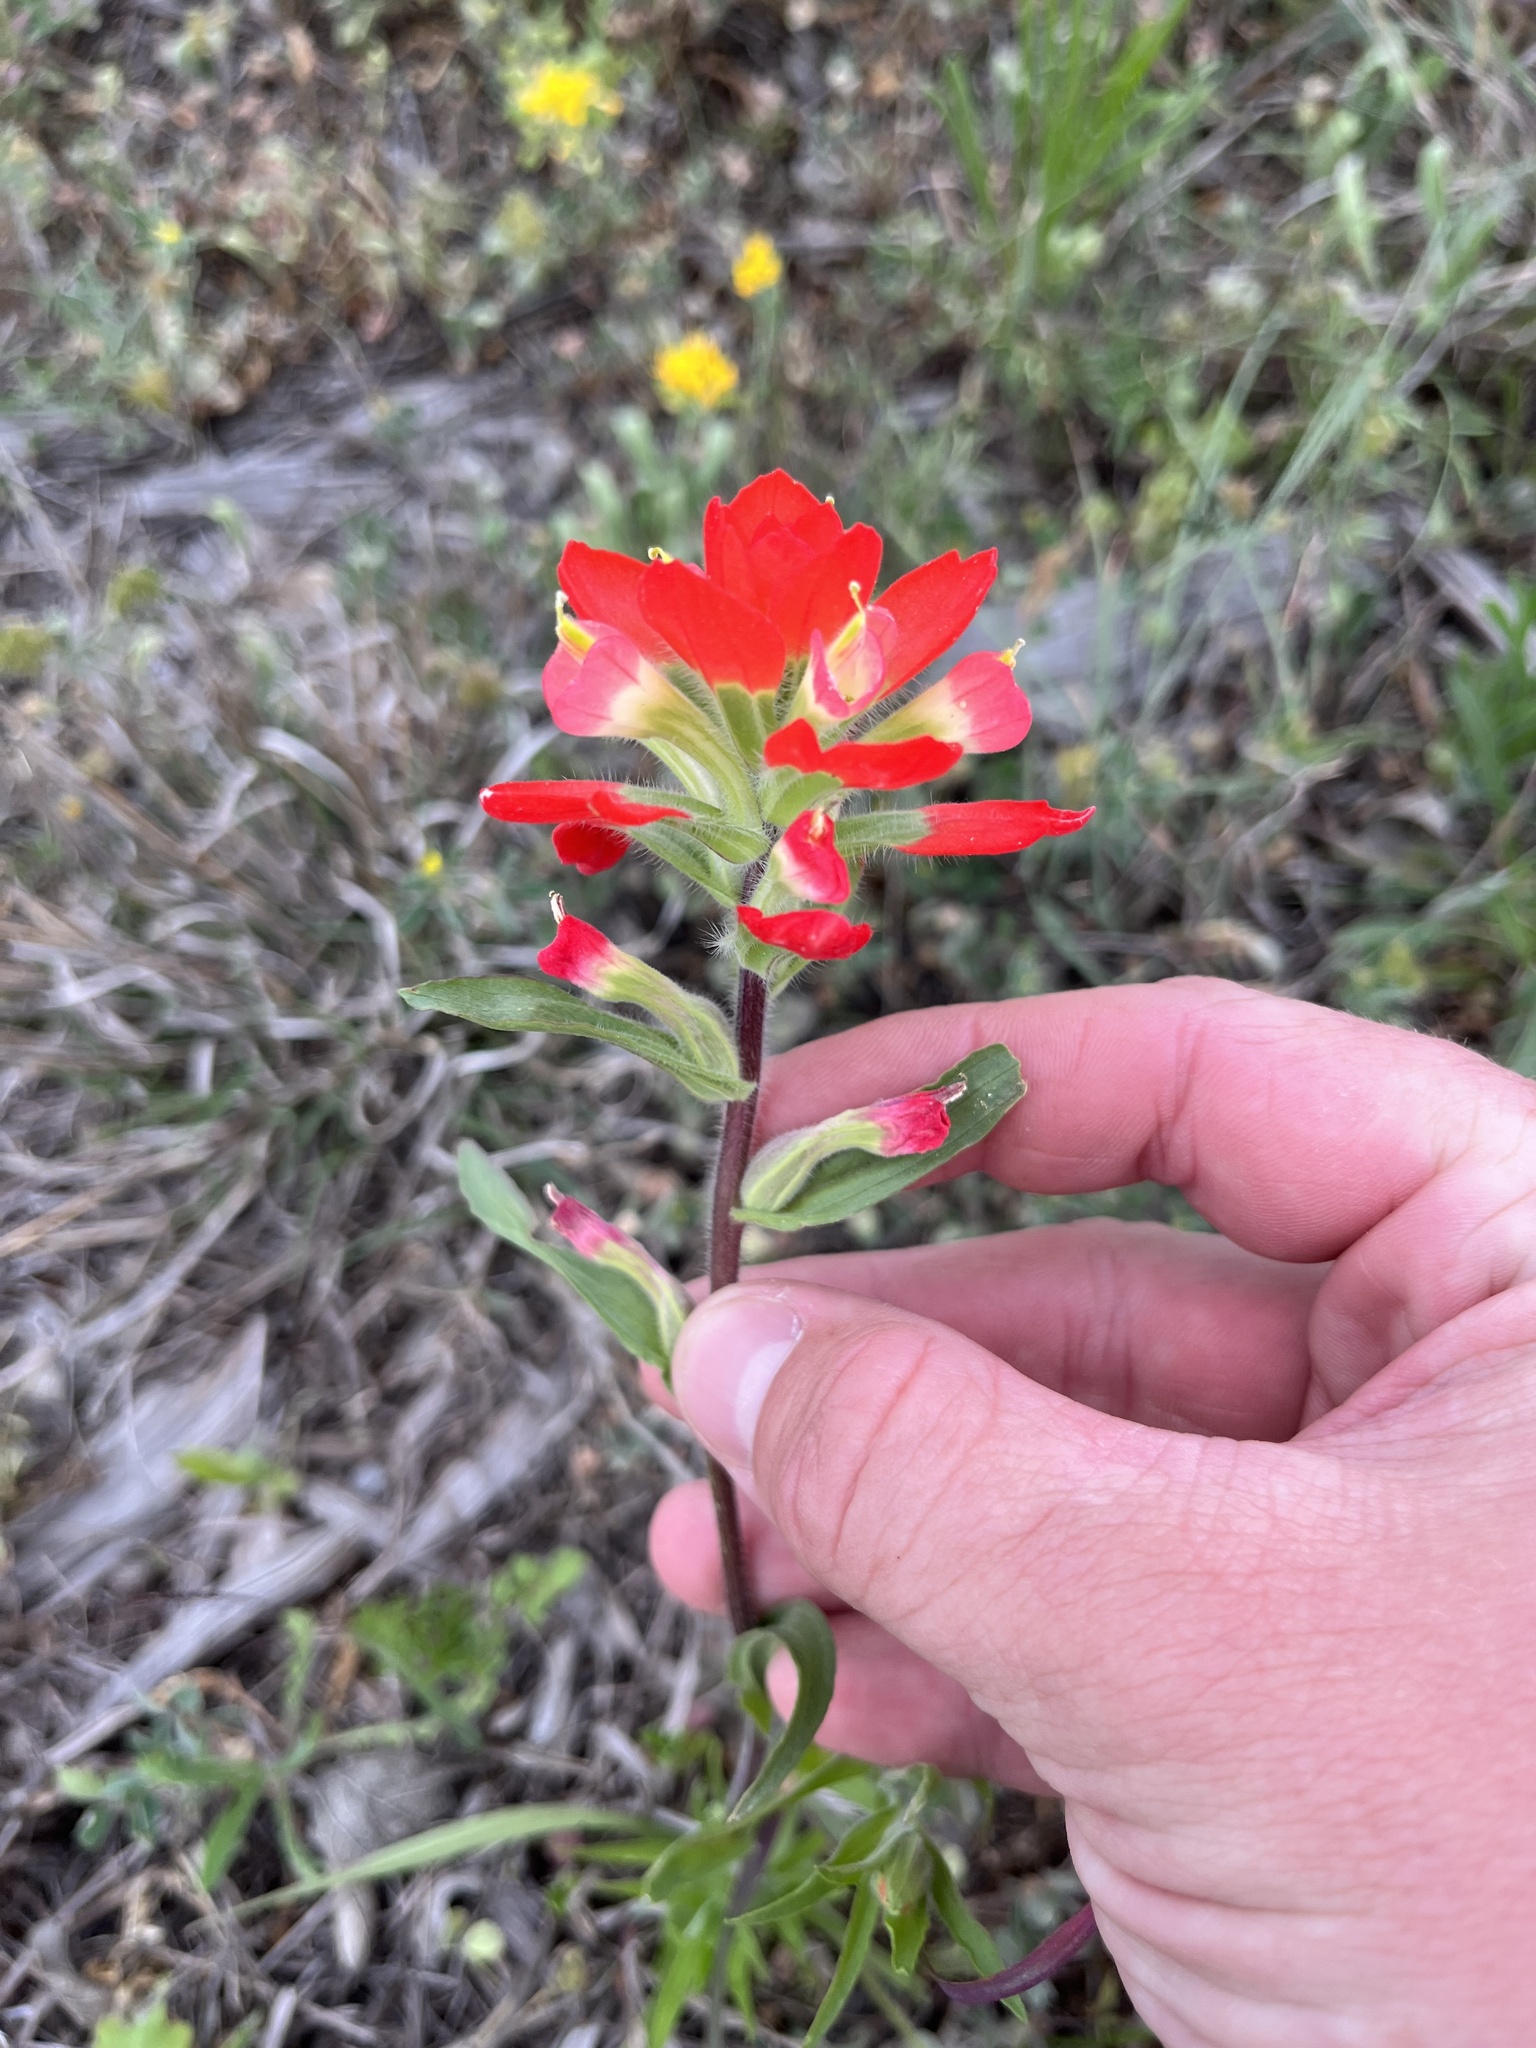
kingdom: Plantae
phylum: Tracheophyta
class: Magnoliopsida
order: Lamiales
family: Orobanchaceae
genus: Castilleja
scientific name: Castilleja indivisa
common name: Texas paintbrush
